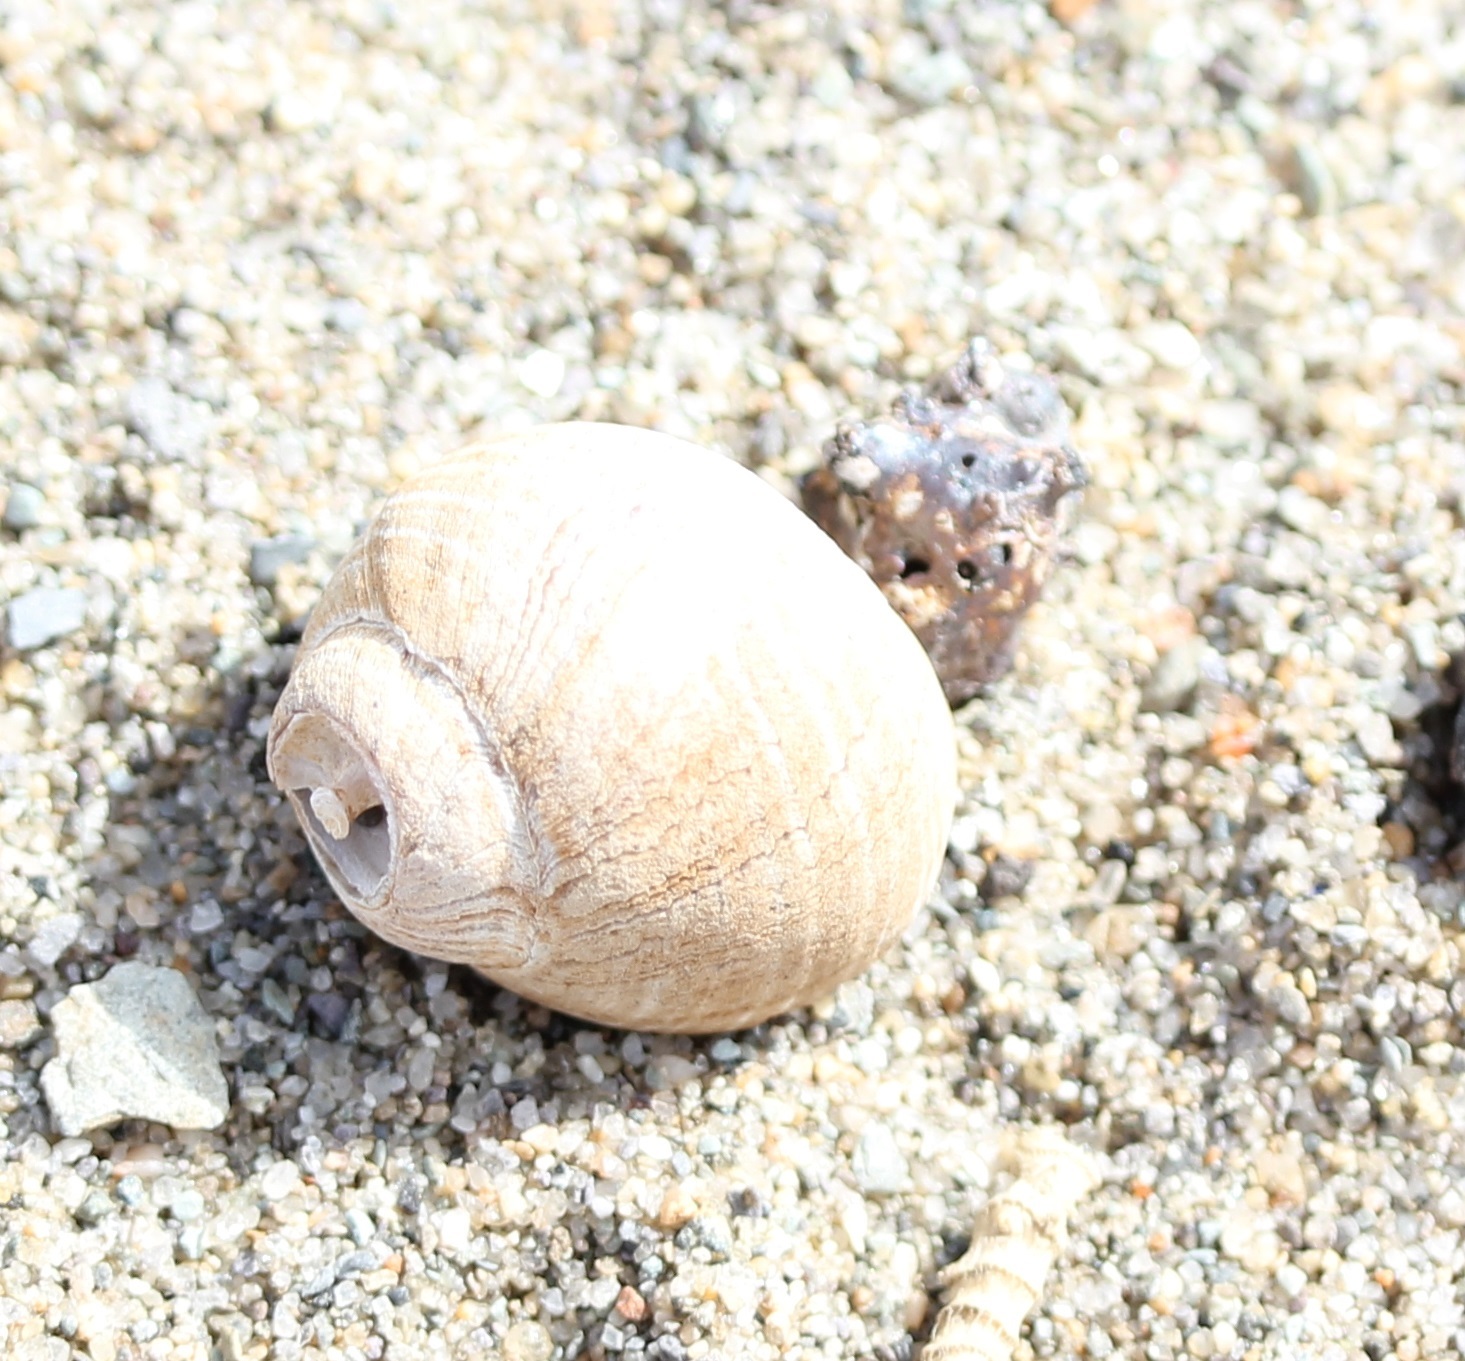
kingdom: Animalia
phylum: Mollusca
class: Gastropoda
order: Littorinimorpha
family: Littorinidae
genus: Littorina
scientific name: Littorina littorea
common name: Common periwinkle
